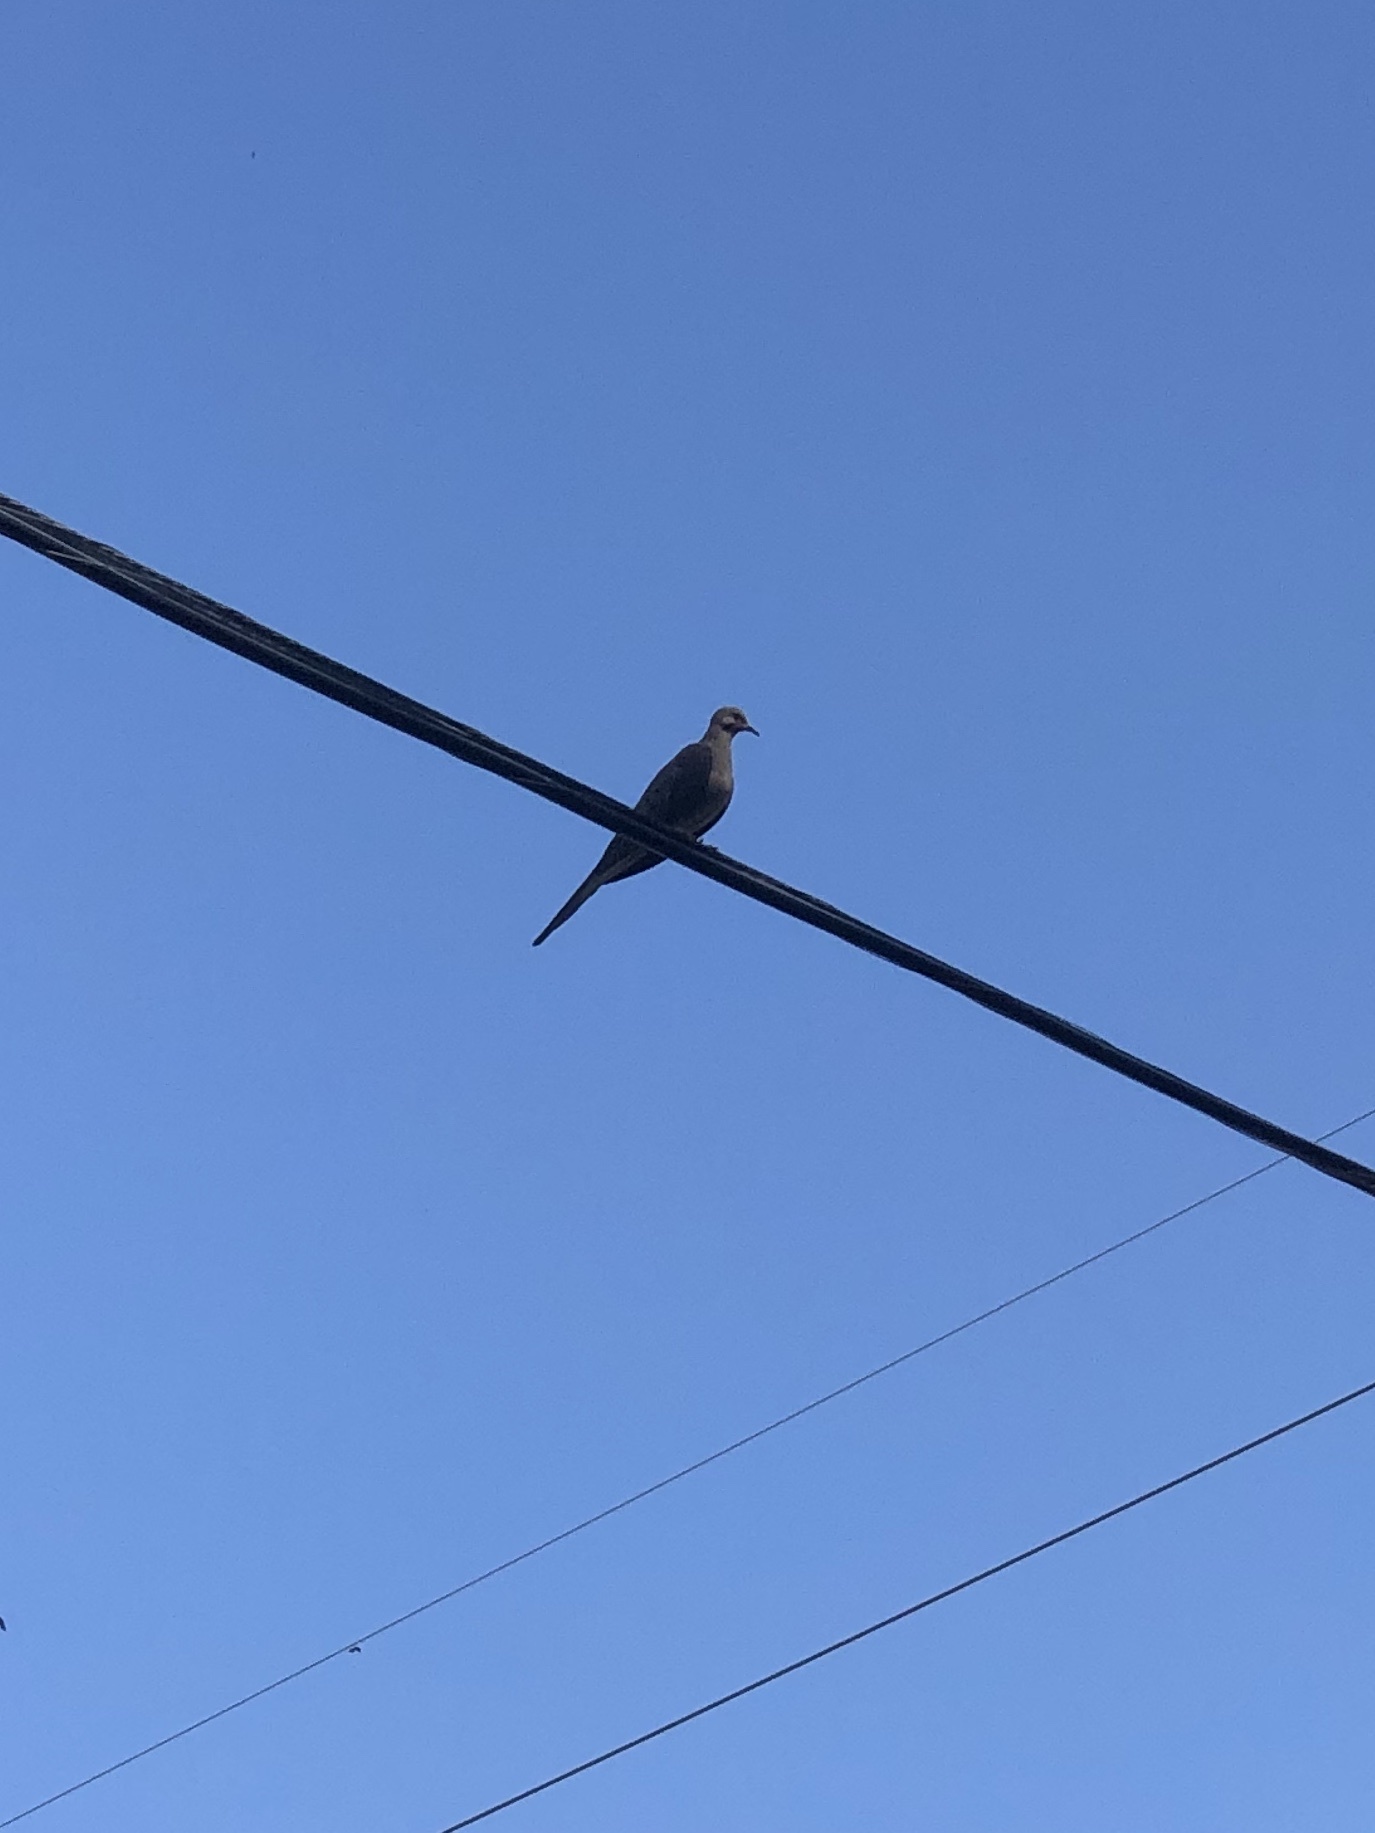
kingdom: Animalia
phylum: Chordata
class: Aves
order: Columbiformes
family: Columbidae
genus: Zenaida
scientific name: Zenaida macroura
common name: Mourning dove
